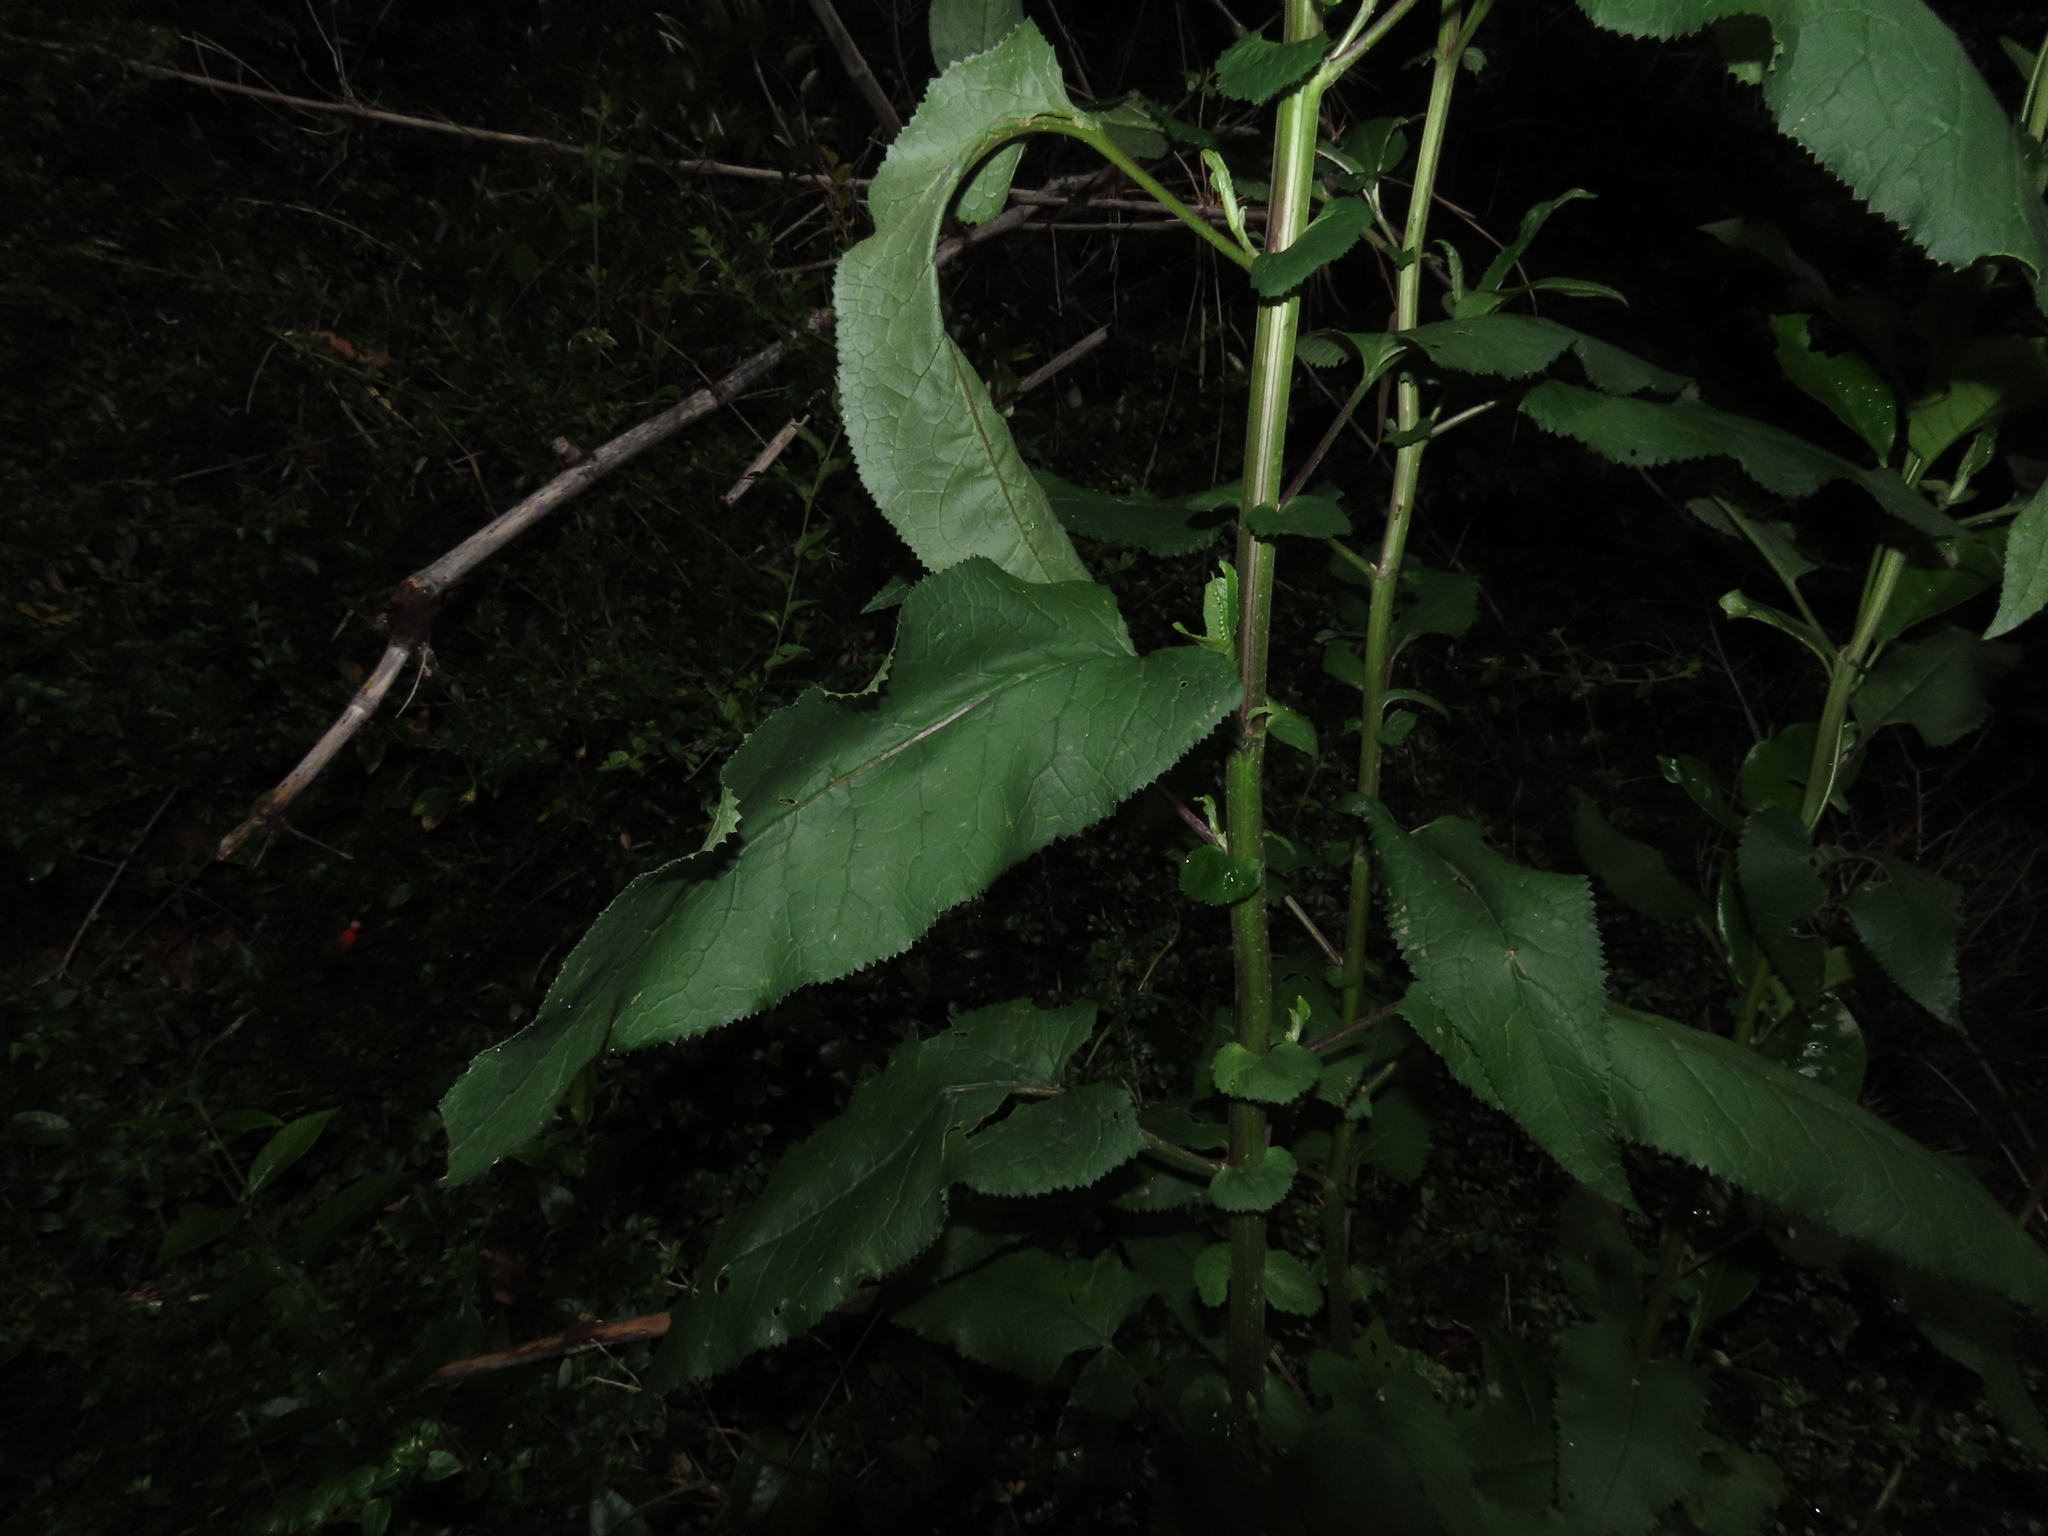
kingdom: Plantae
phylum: Tracheophyta
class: Magnoliopsida
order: Asterales
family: Asteraceae
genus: Senecio
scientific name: Senecio otites
